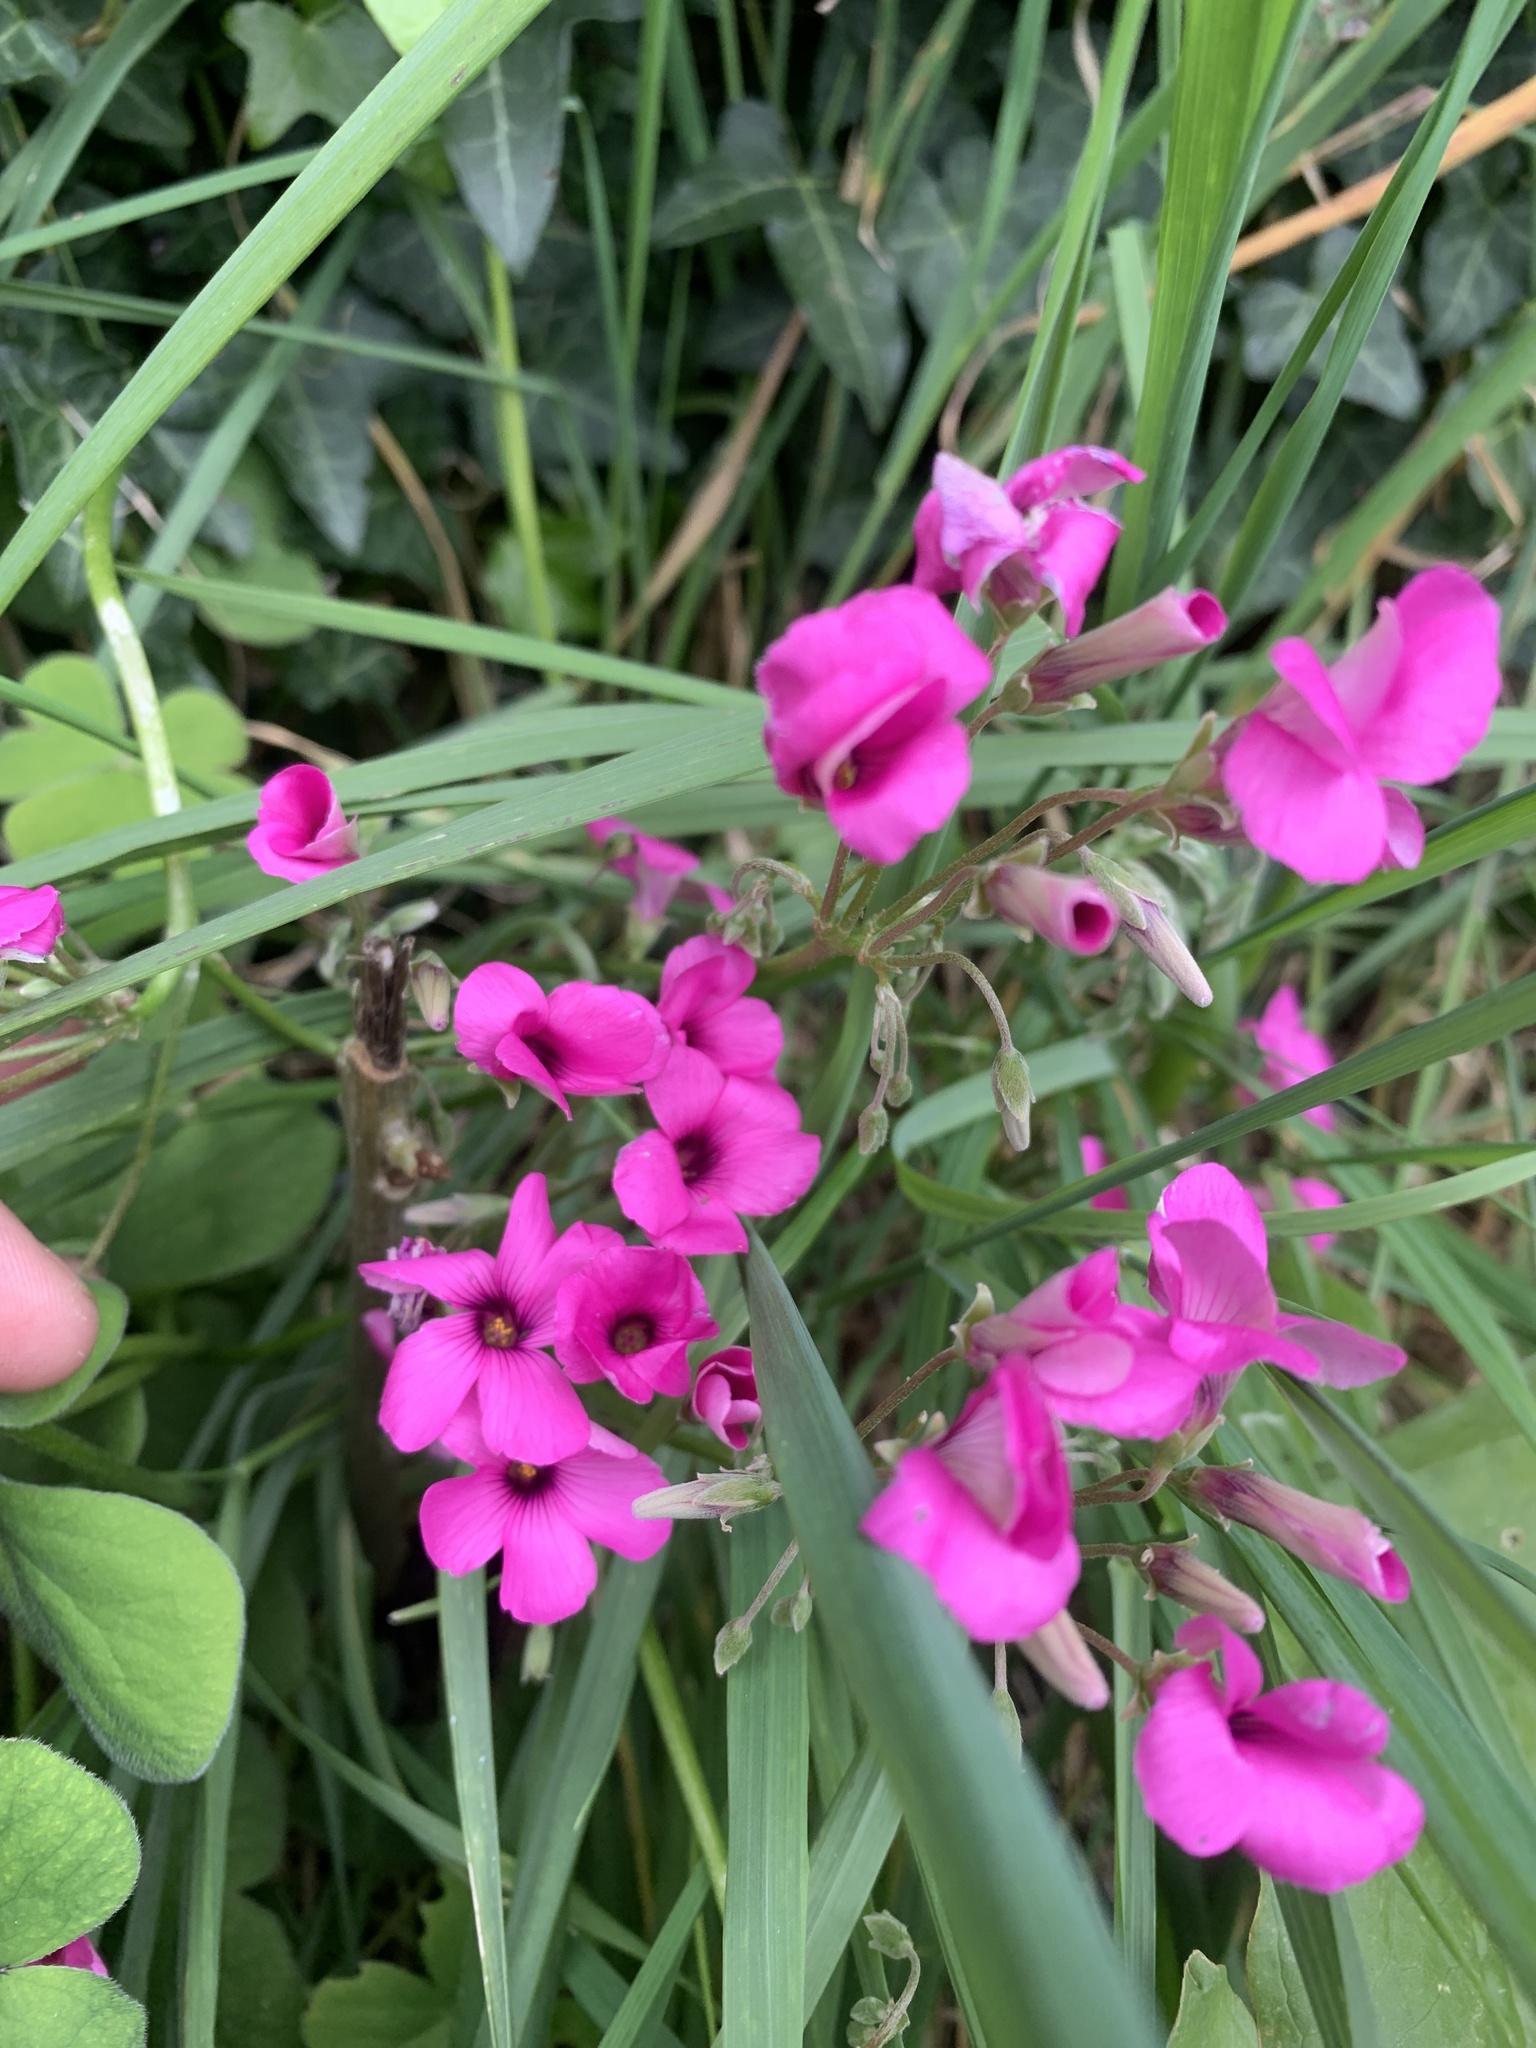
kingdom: Plantae
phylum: Tracheophyta
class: Magnoliopsida
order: Oxalidales
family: Oxalidaceae
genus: Oxalis
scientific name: Oxalis articulata
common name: Pink-sorrel
